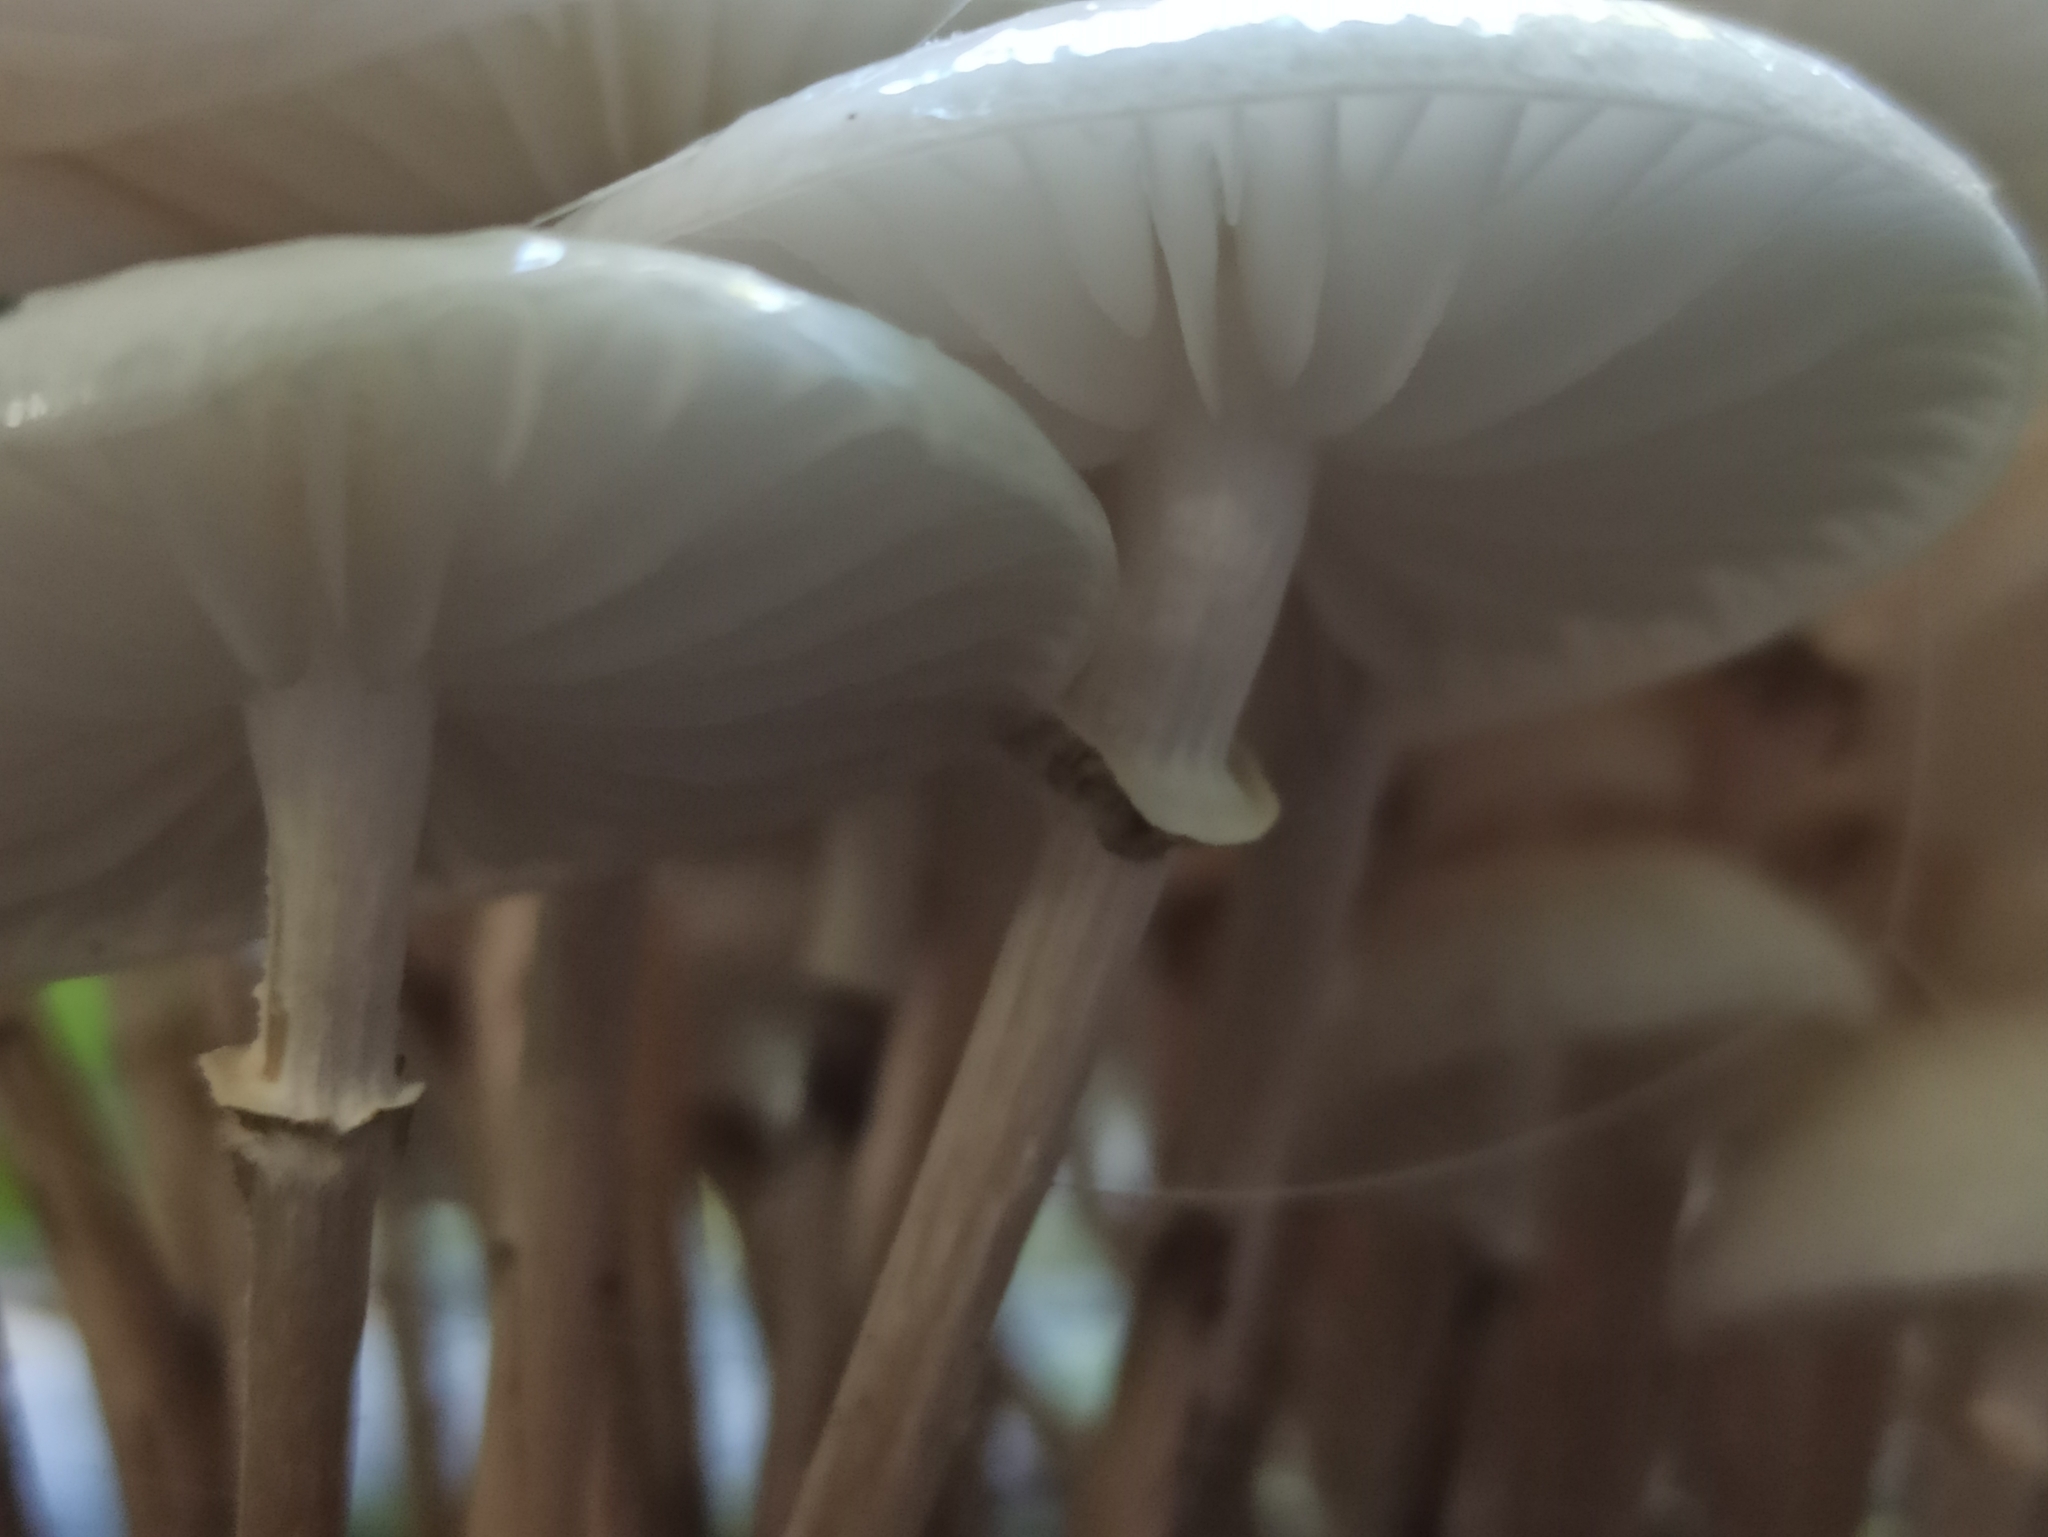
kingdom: Fungi
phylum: Basidiomycota
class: Agaricomycetes
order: Agaricales
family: Physalacriaceae
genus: Mucidula
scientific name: Mucidula mucida
